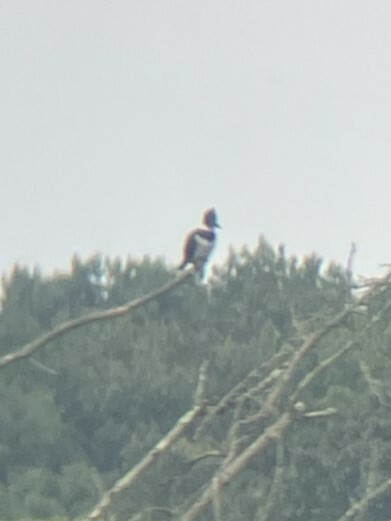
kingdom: Animalia
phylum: Chordata
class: Aves
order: Coraciiformes
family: Alcedinidae
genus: Megaceryle
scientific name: Megaceryle alcyon
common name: Belted kingfisher
